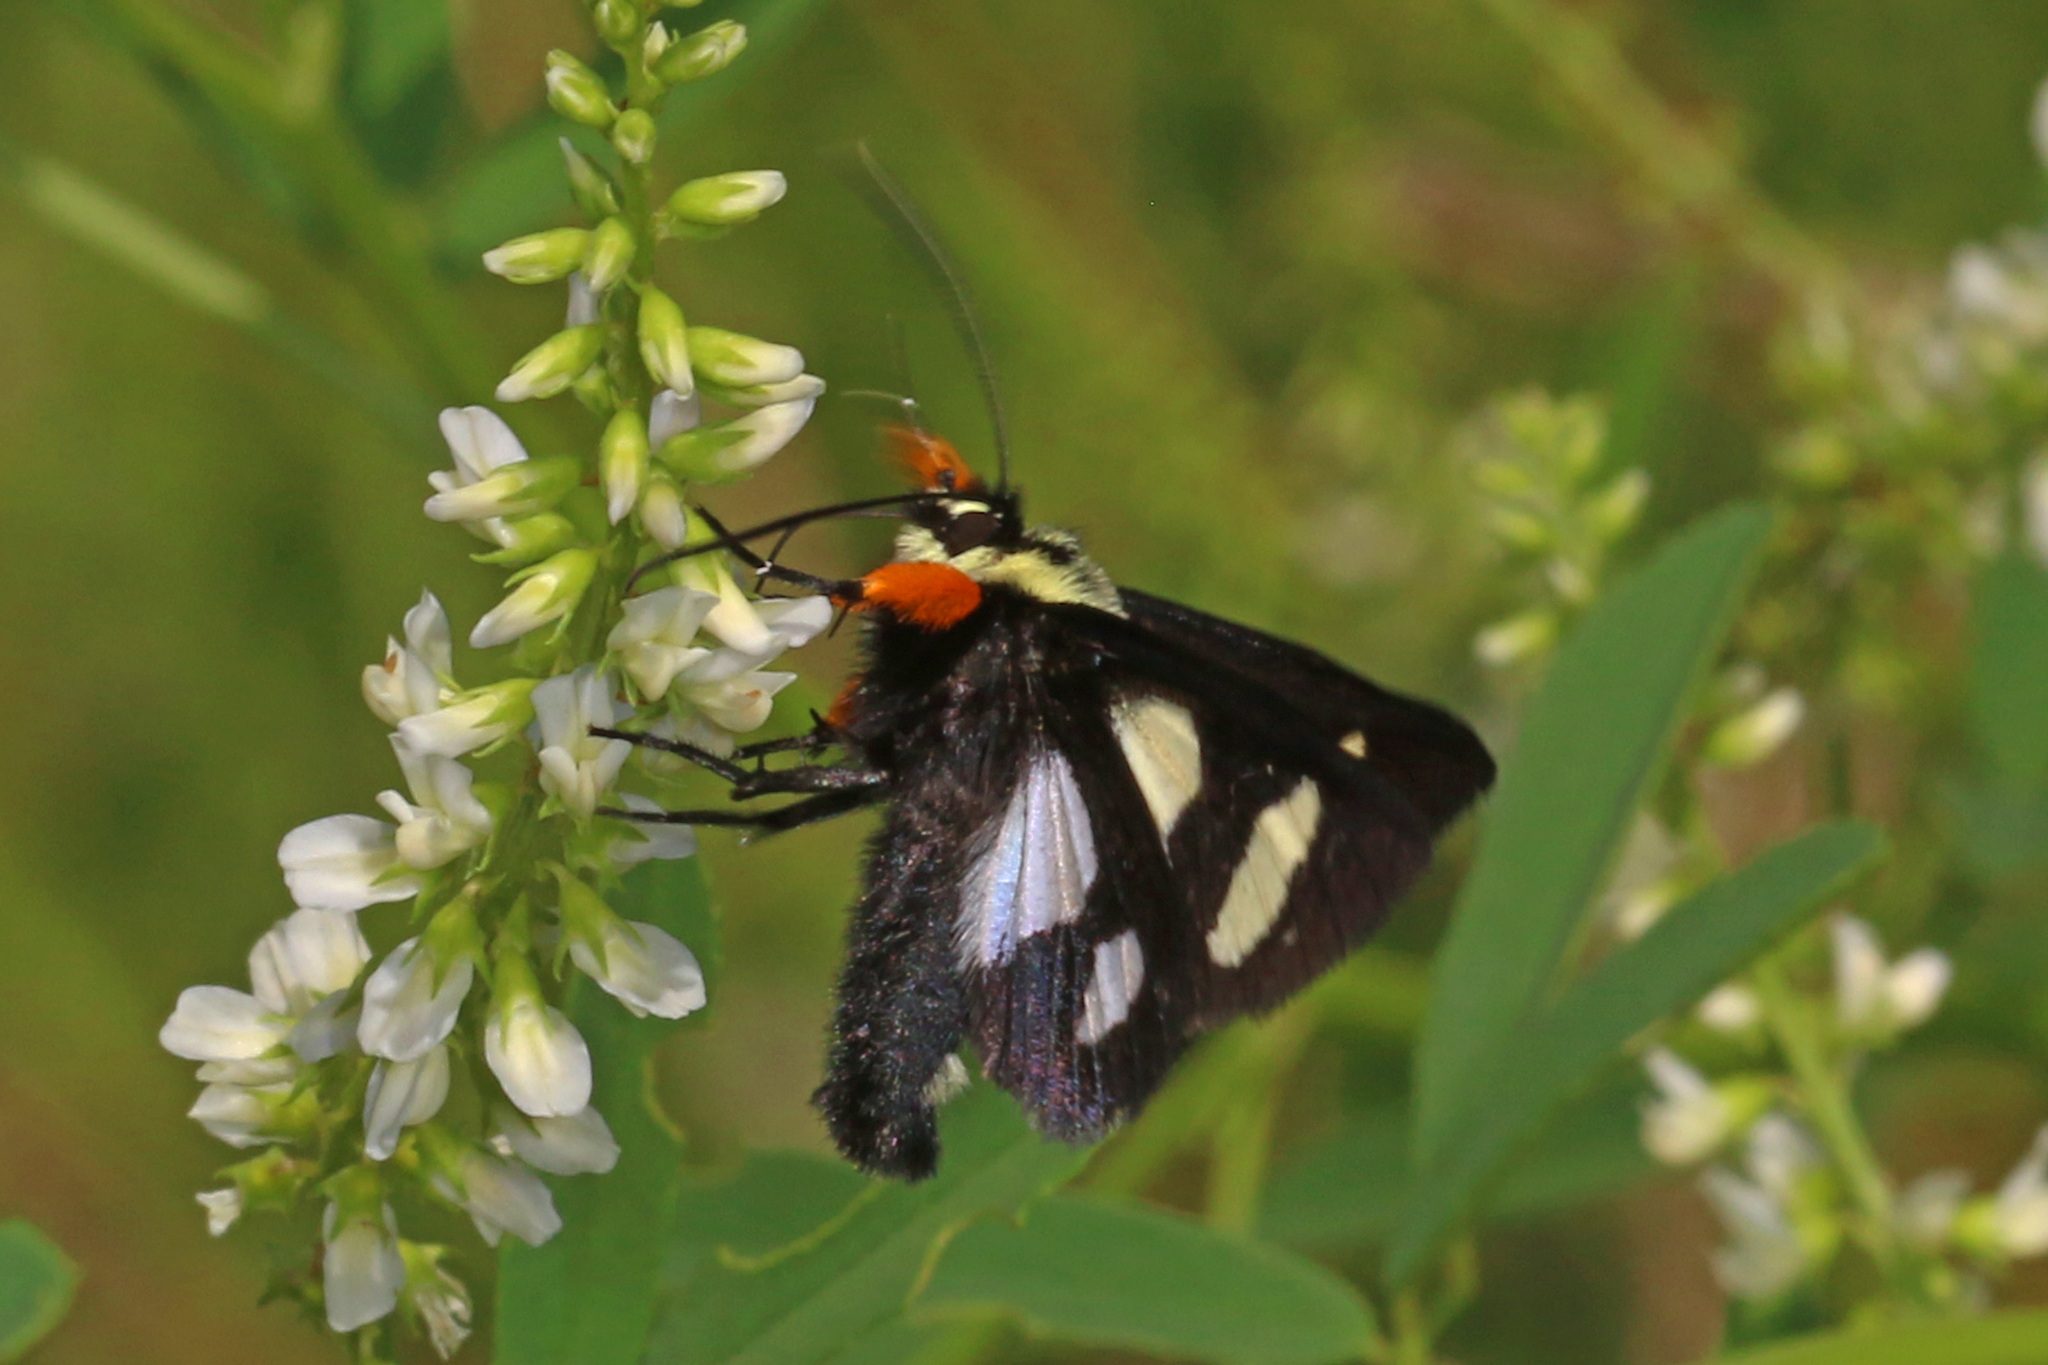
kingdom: Animalia
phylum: Arthropoda
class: Insecta
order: Lepidoptera
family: Noctuidae
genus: Alypia
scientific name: Alypia octomaculata
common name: Eight-spotted forester
